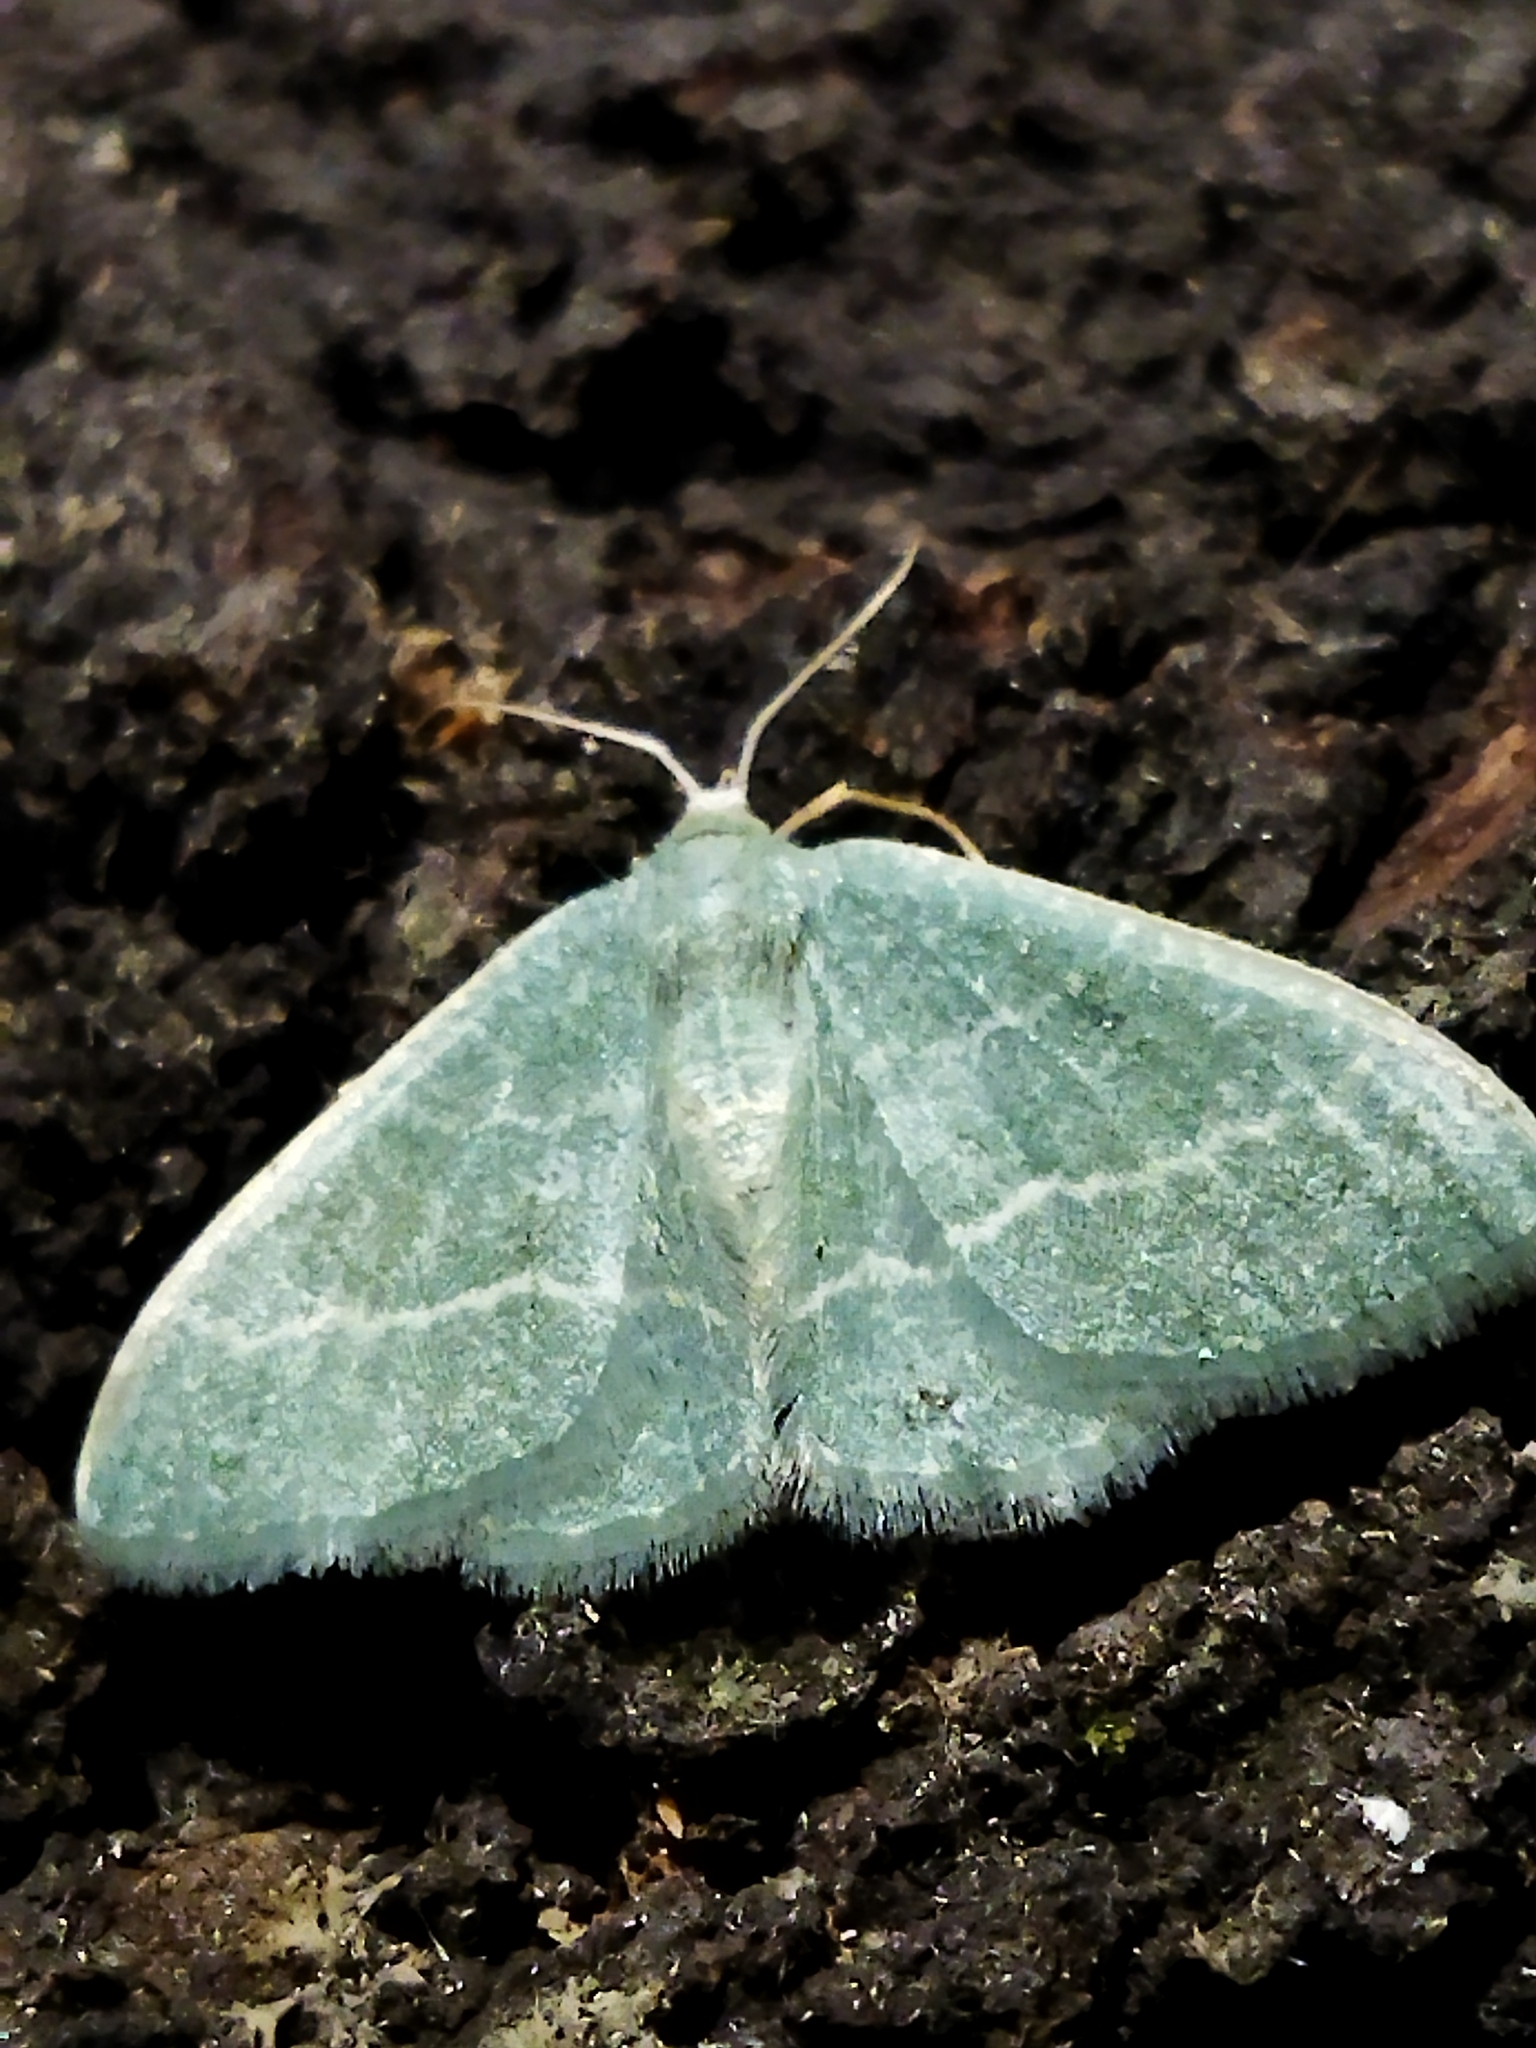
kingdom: Animalia
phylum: Arthropoda
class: Insecta
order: Lepidoptera
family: Geometridae
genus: Chlorissa
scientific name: Chlorissa
